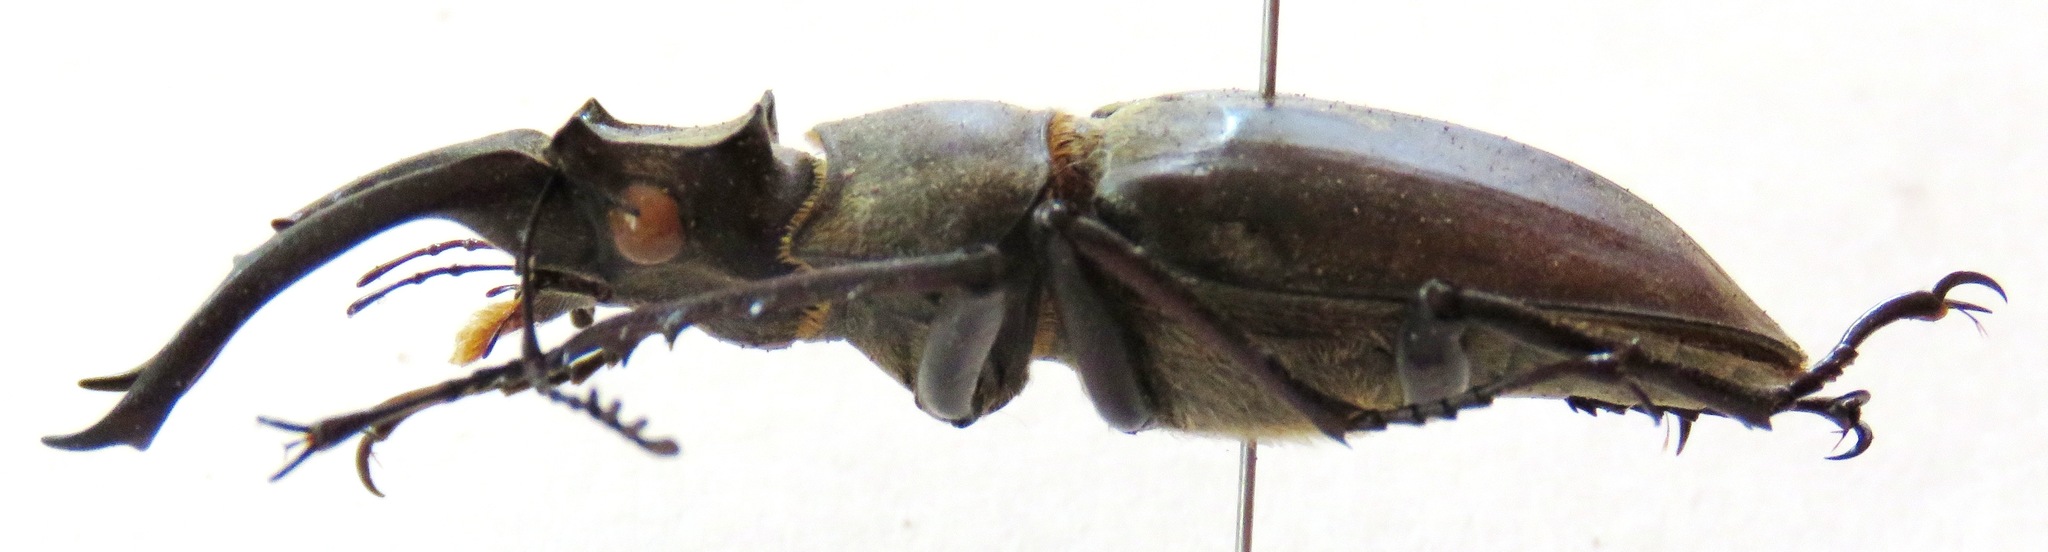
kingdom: Animalia
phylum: Arthropoda
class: Insecta
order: Coleoptera
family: Lucanidae
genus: Lucanus
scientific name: Lucanus nobilis
